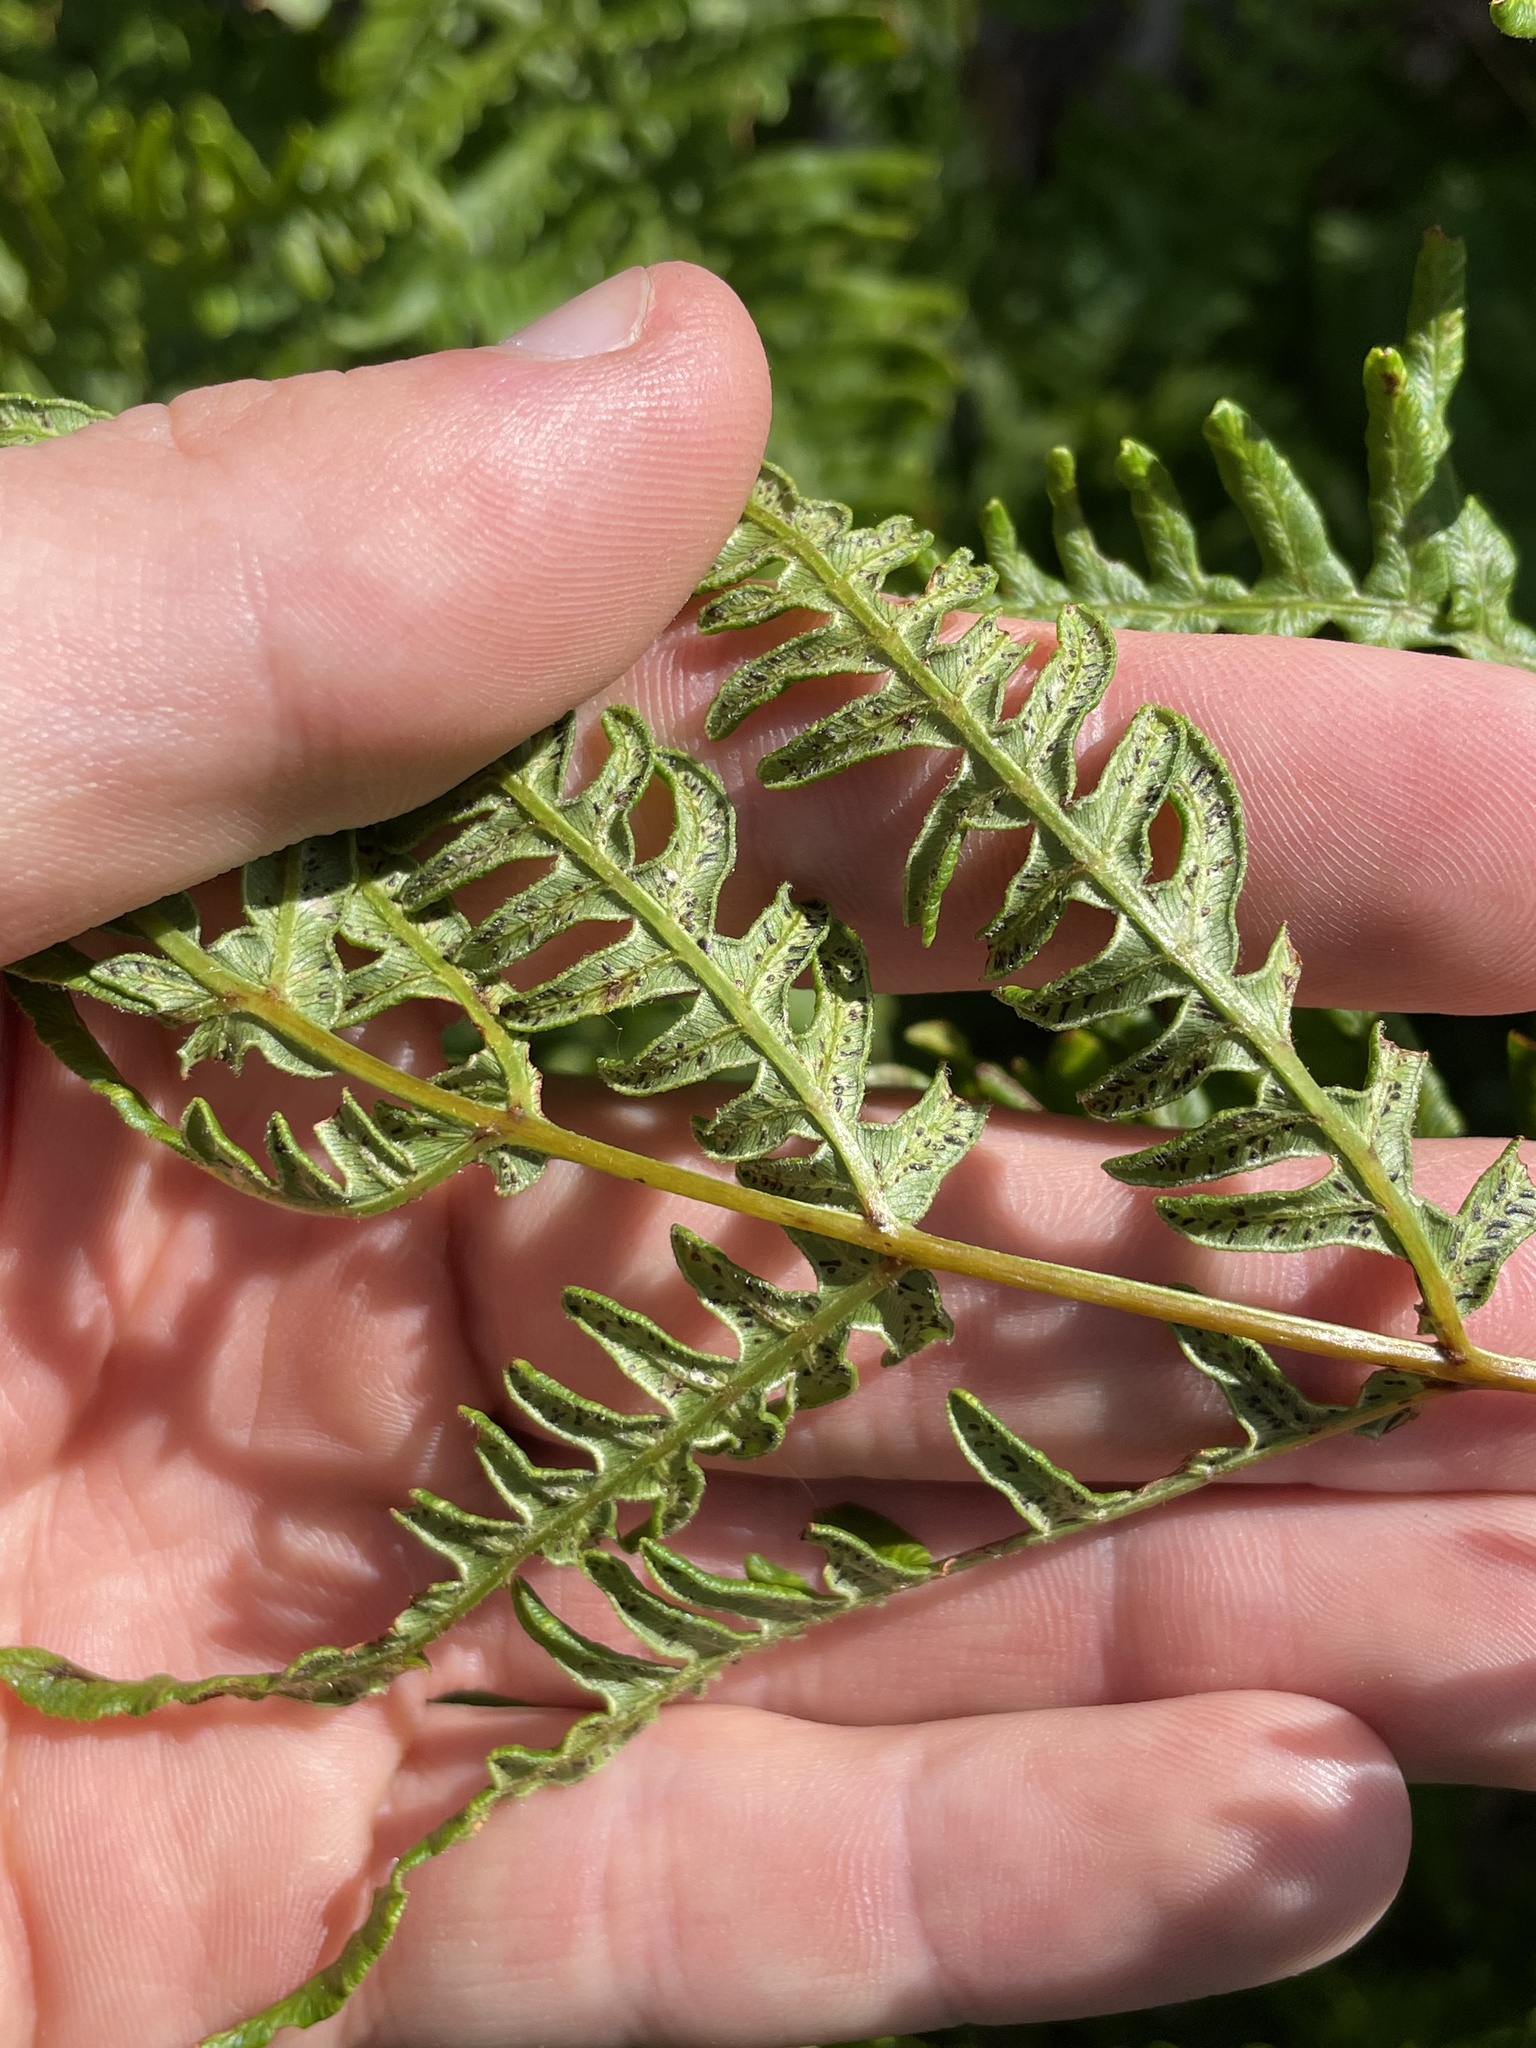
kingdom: Plantae
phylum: Tracheophyta
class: Polypodiopsida
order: Polypodiales
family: Dennstaedtiaceae
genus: Pteridium
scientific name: Pteridium aquilinum
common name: Bracken
